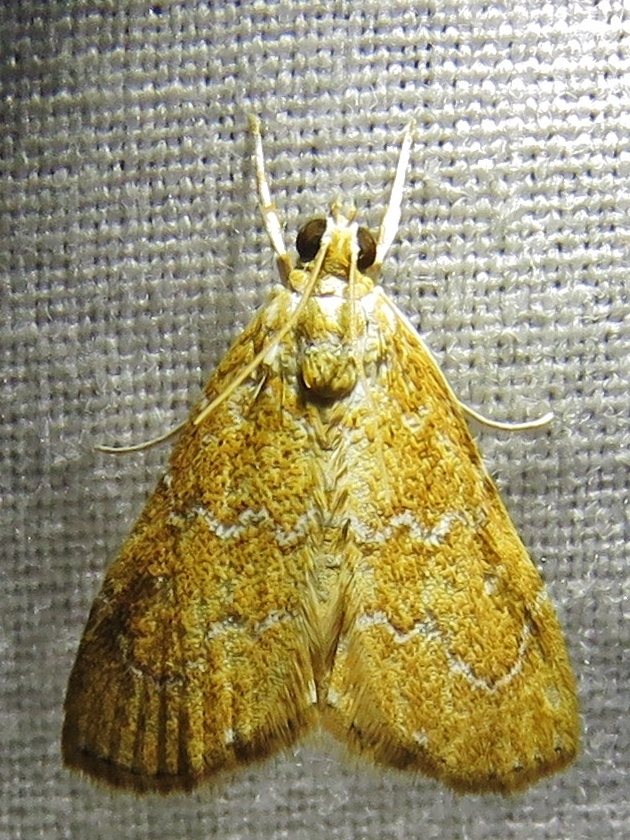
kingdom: Animalia
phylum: Arthropoda
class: Insecta
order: Lepidoptera
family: Crambidae
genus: Glaphyria
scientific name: Glaphyria sesquistrialis
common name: White-roped glaphyria
